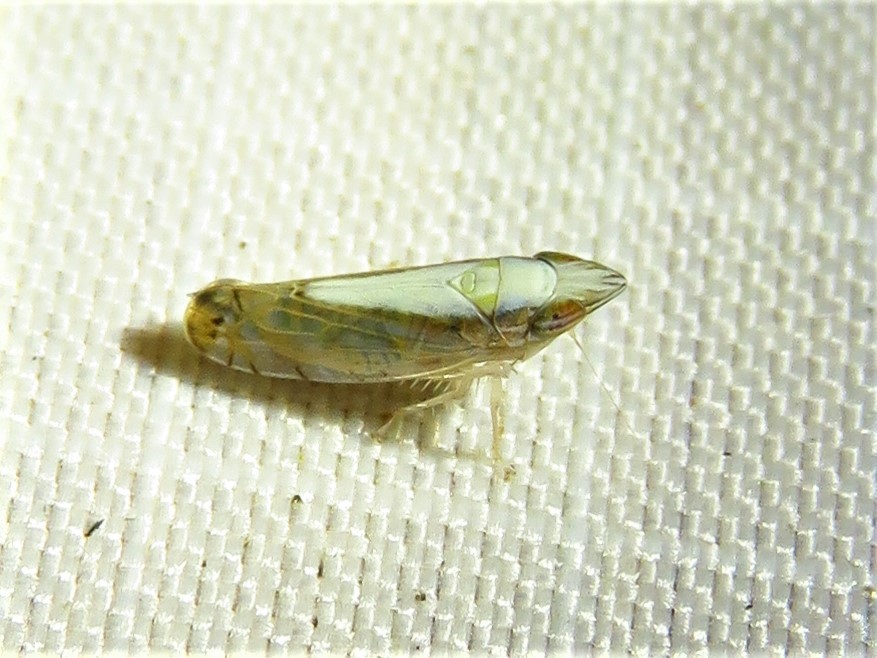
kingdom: Animalia
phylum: Arthropoda
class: Insecta
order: Hemiptera
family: Cicadellidae
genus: Scaphytopius
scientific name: Scaphytopius elegans
